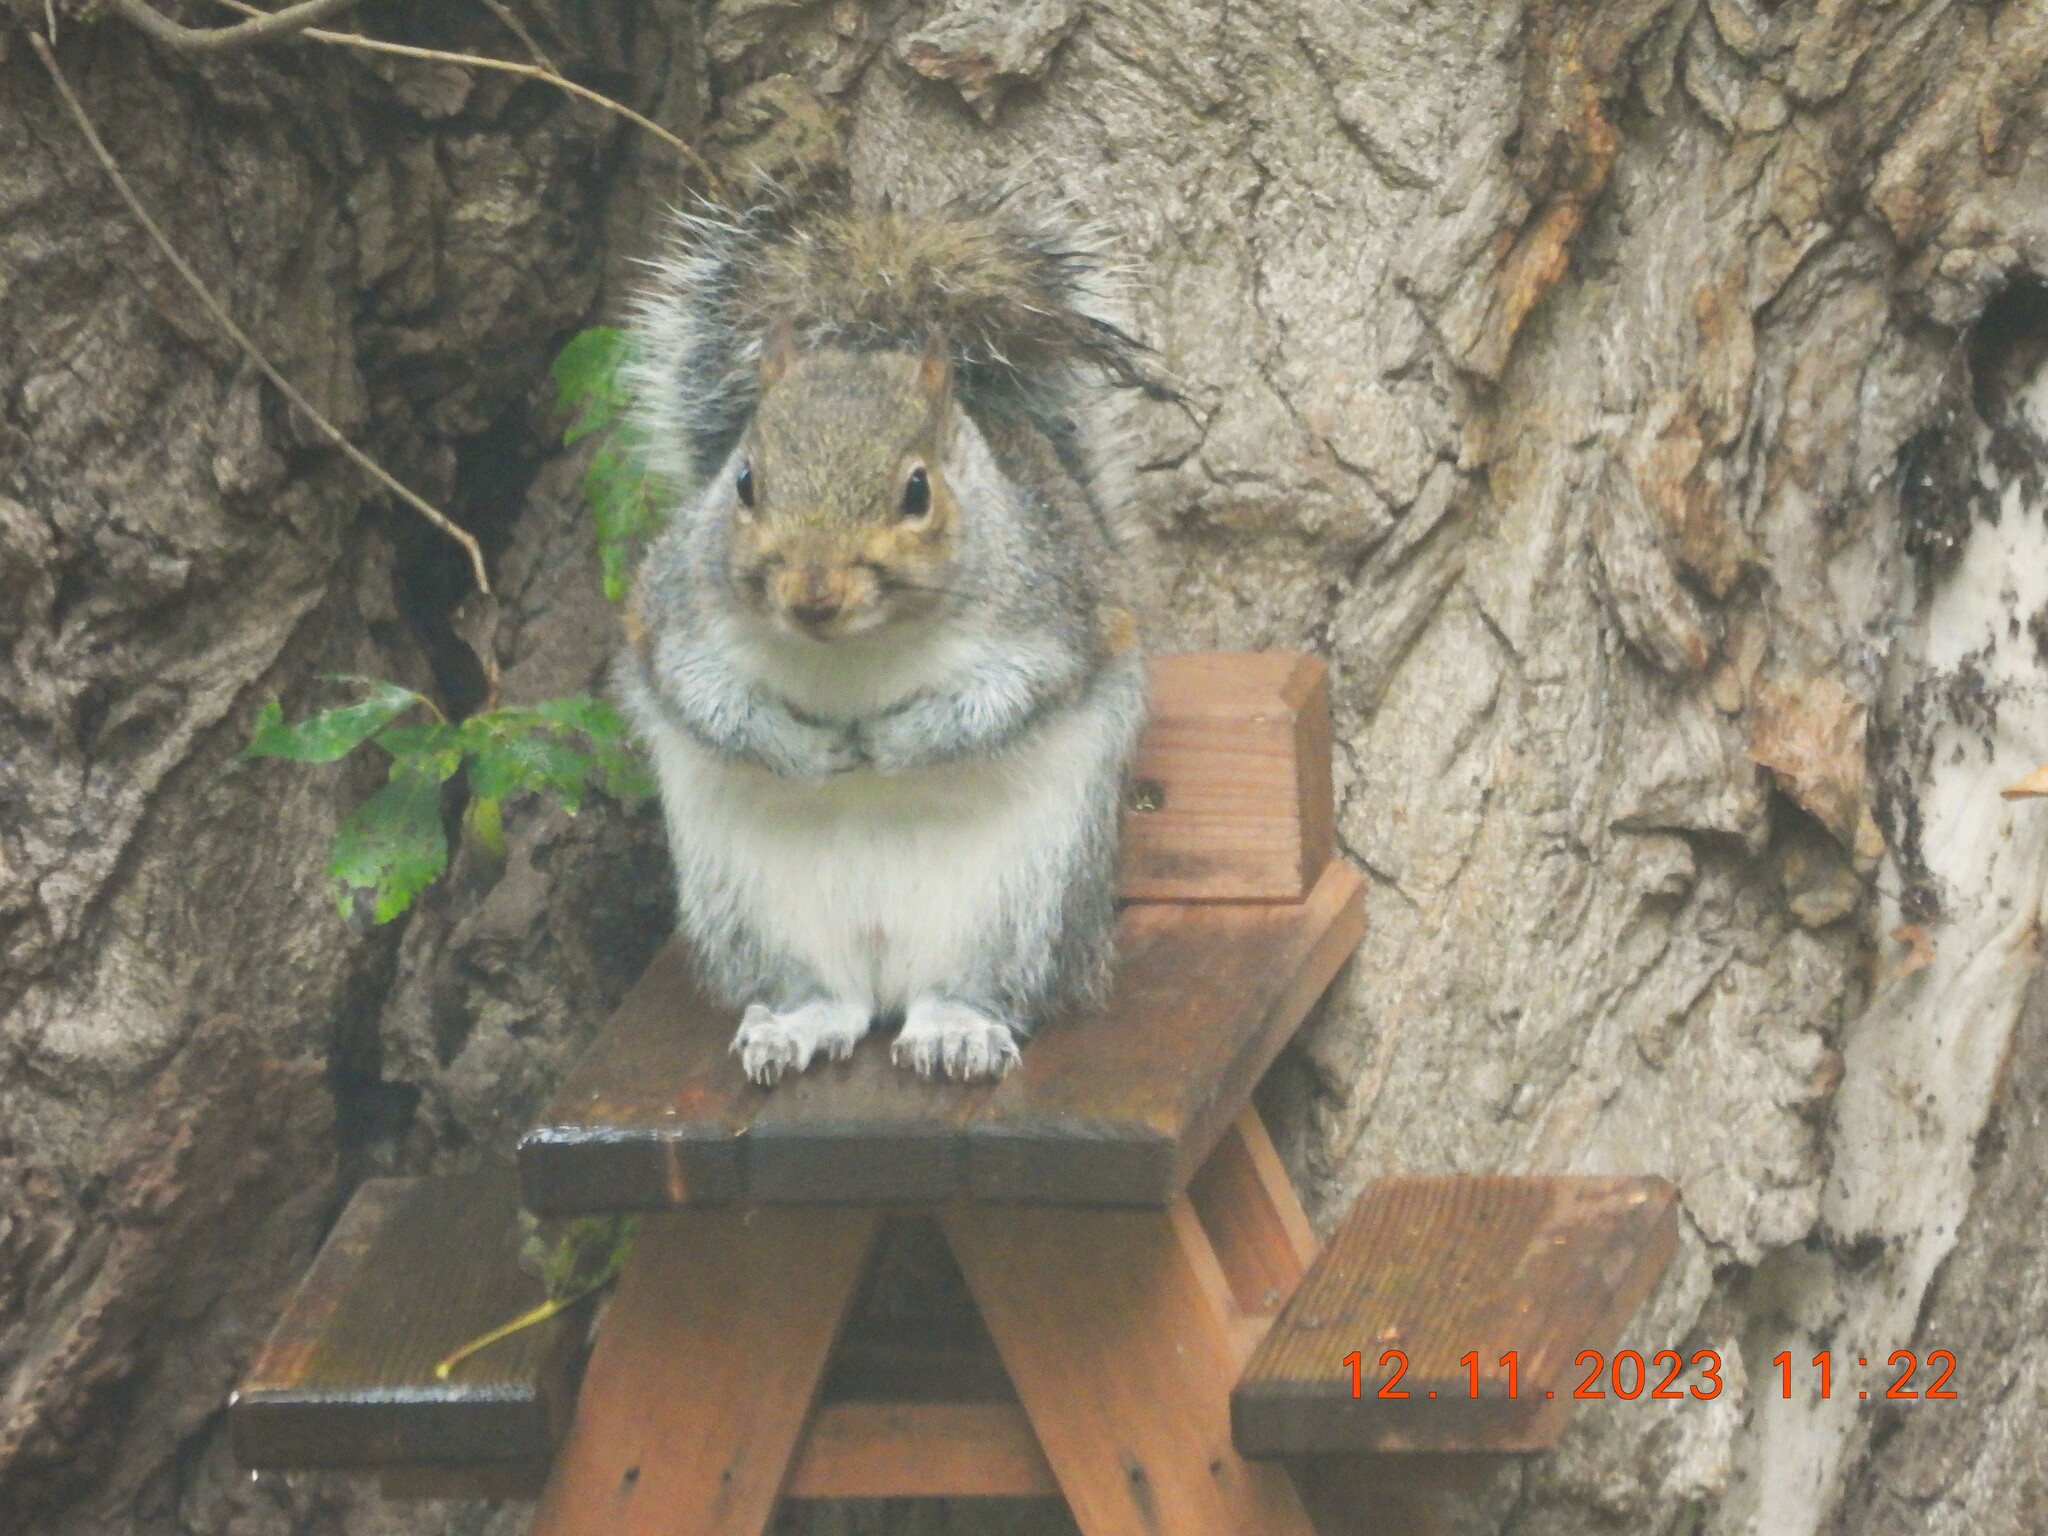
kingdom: Animalia
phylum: Chordata
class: Mammalia
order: Rodentia
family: Sciuridae
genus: Sciurus
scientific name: Sciurus carolinensis
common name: Eastern gray squirrel
